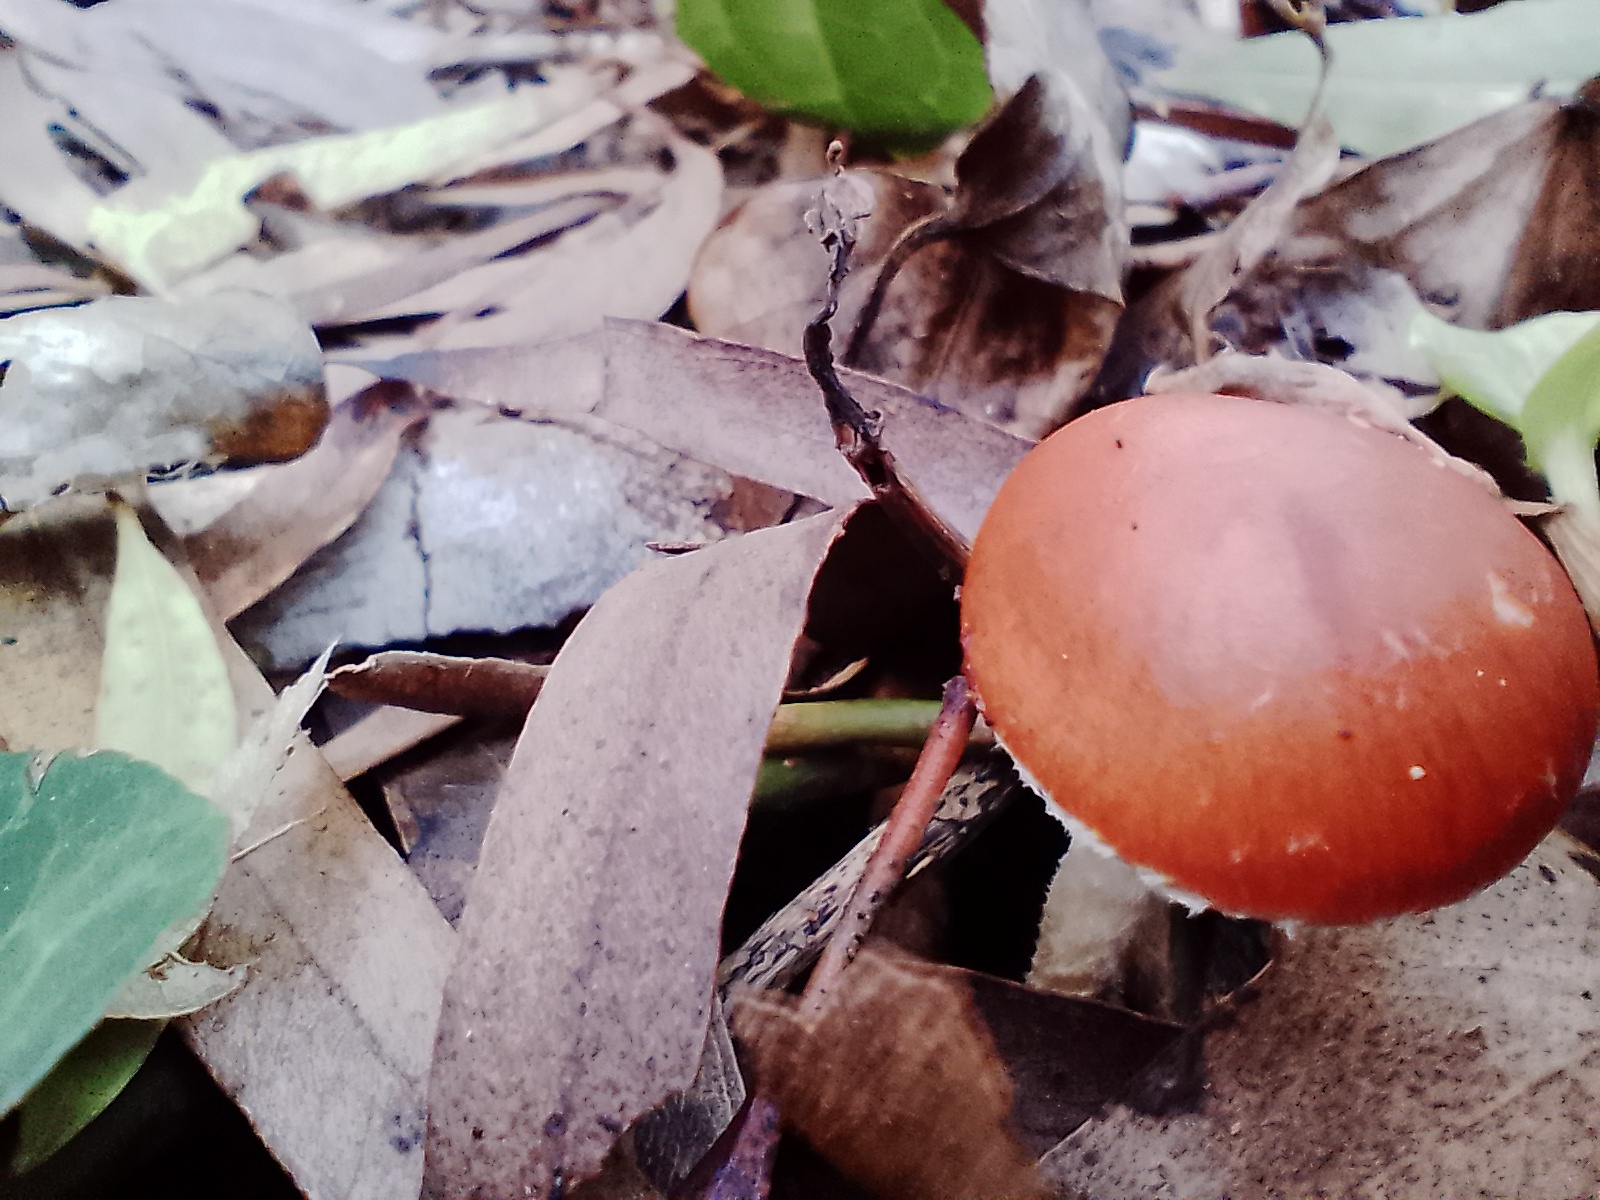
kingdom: Fungi
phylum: Basidiomycota
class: Agaricomycetes
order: Agaricales
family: Strophariaceae
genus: Leratiomyces
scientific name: Leratiomyces ceres
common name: Redlead roundhead
